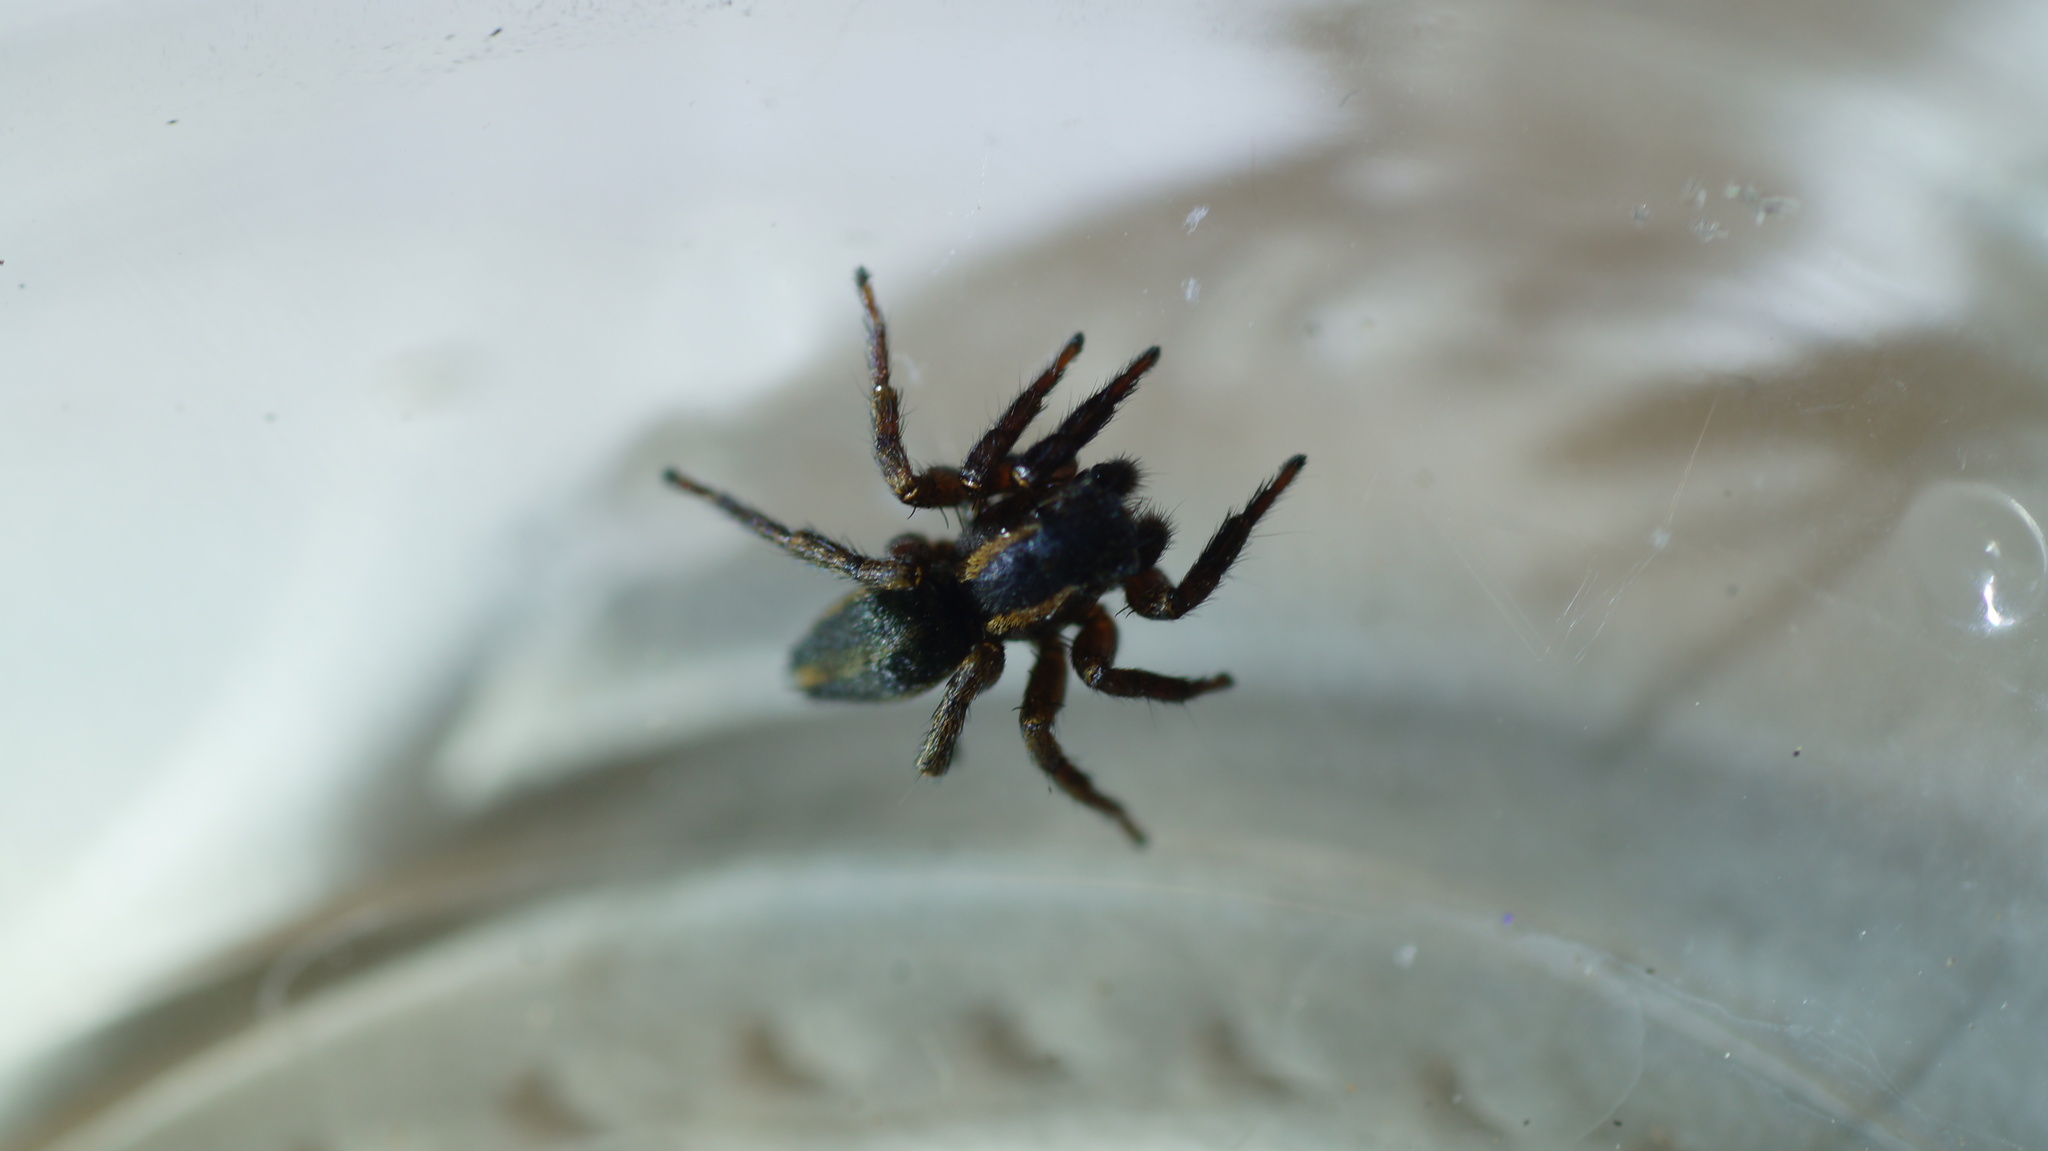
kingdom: Animalia
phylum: Arthropoda
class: Arachnida
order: Araneae
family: Salticidae
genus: Phlegra
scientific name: Phlegra fasciata
